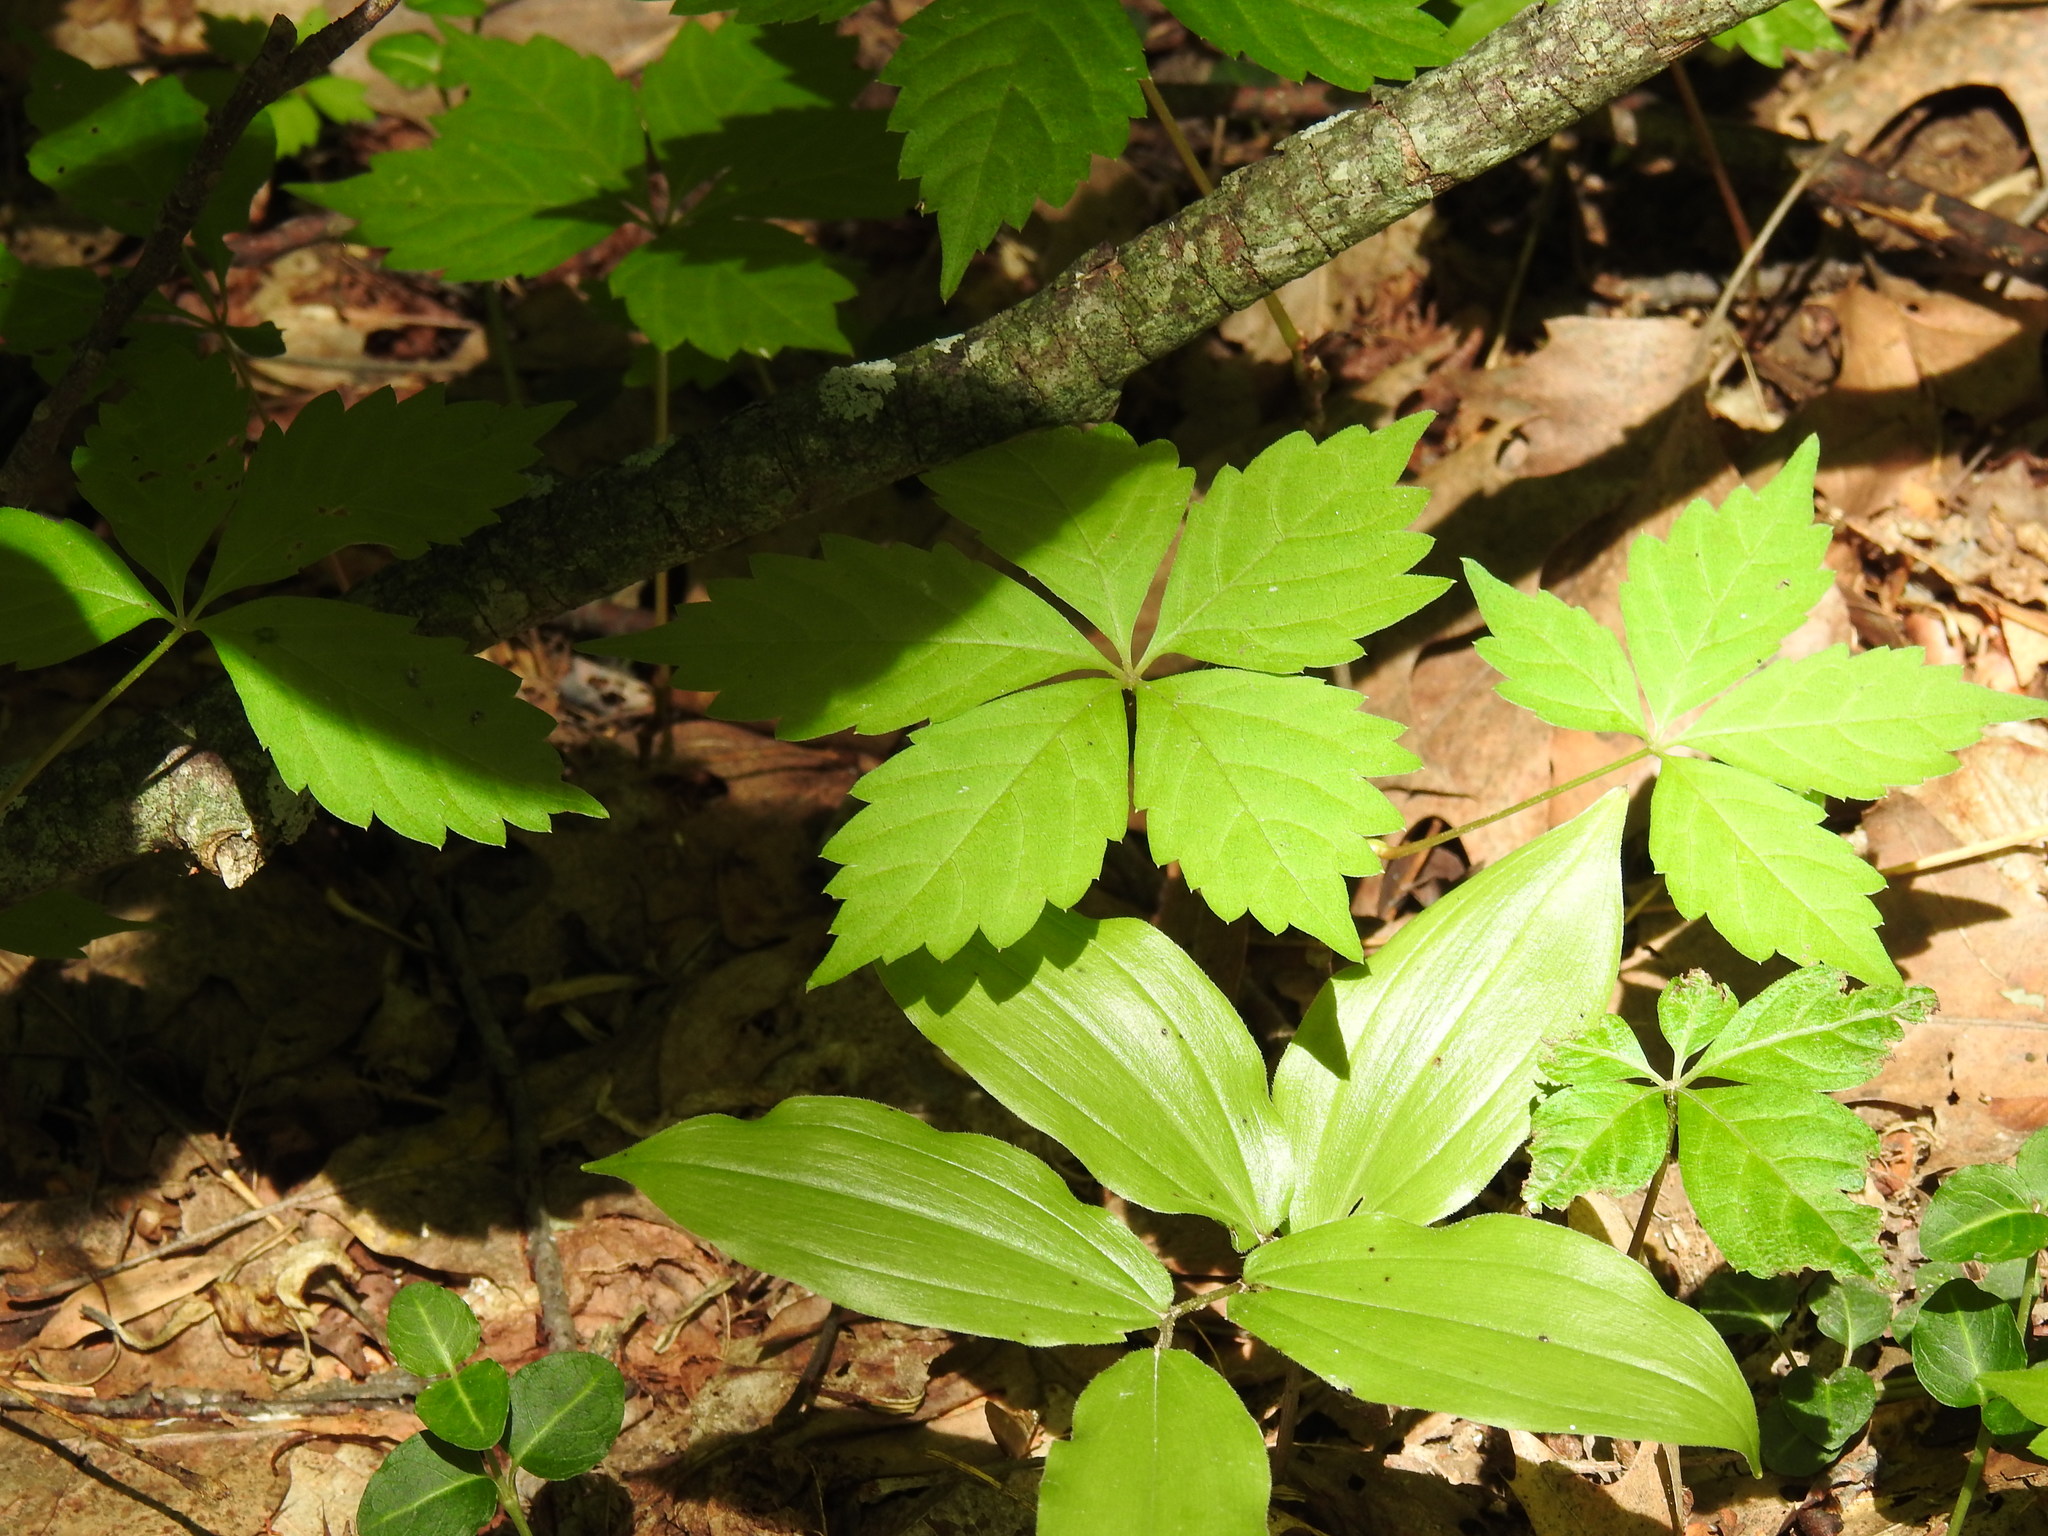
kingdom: Plantae
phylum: Tracheophyta
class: Magnoliopsida
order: Vitales
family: Vitaceae
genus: Parthenocissus
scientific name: Parthenocissus quinquefolia
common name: Virginia-creeper
